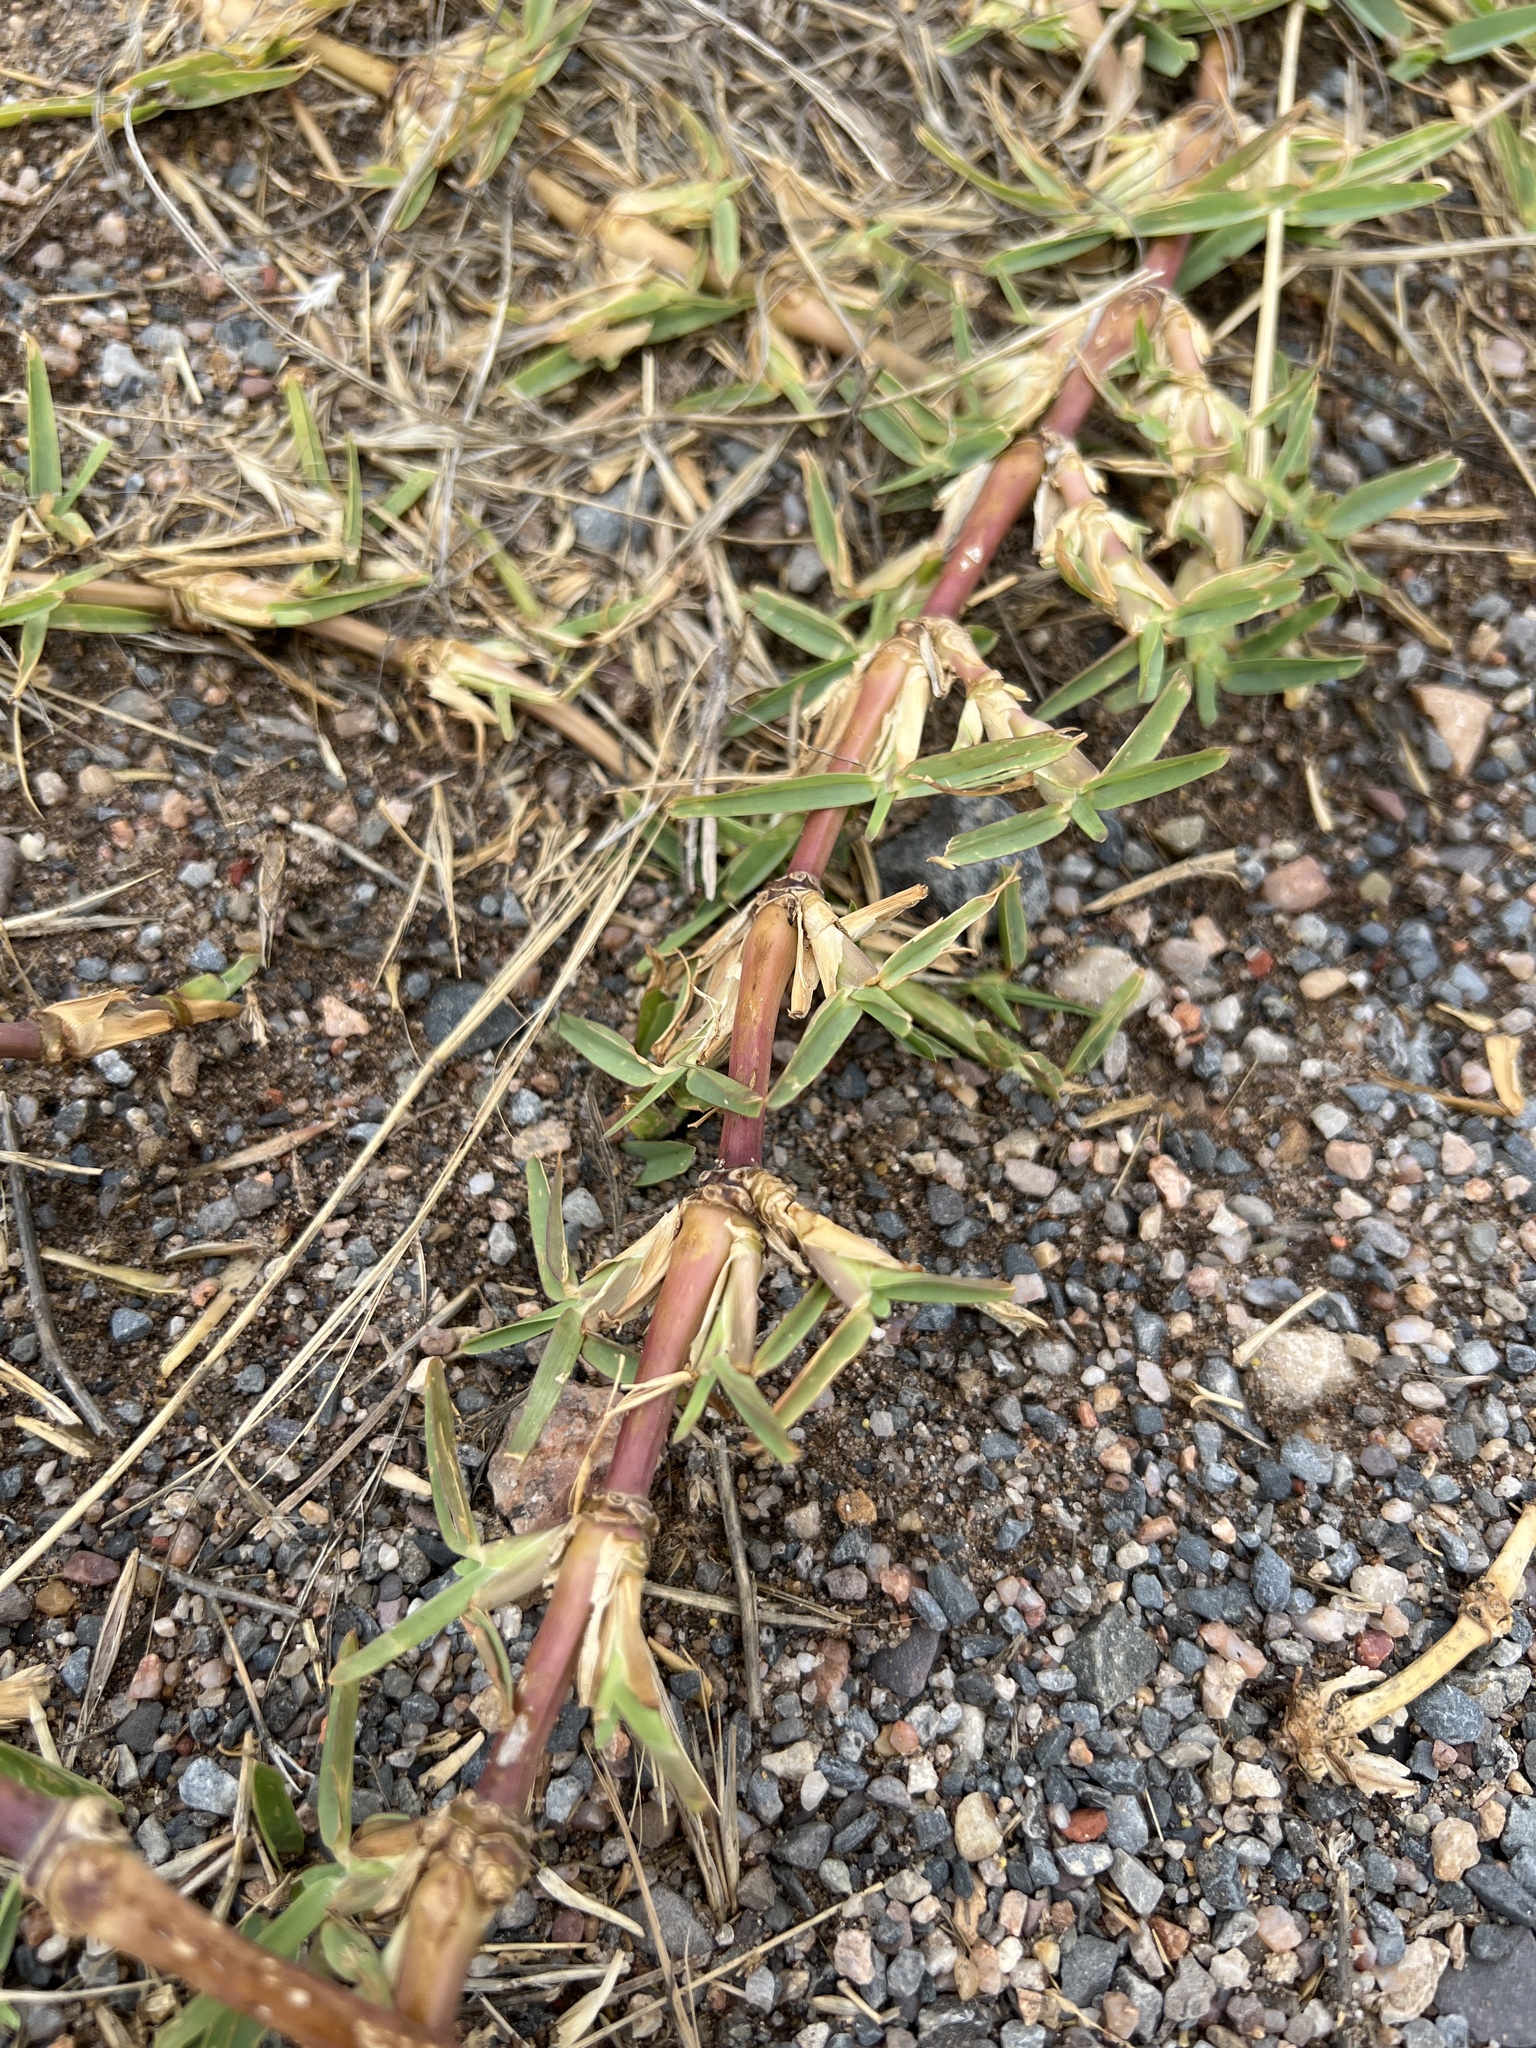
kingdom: Plantae
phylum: Tracheophyta
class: Liliopsida
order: Poales
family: Poaceae
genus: Stenotaphrum
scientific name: Stenotaphrum secundatum
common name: St. augustine grass
